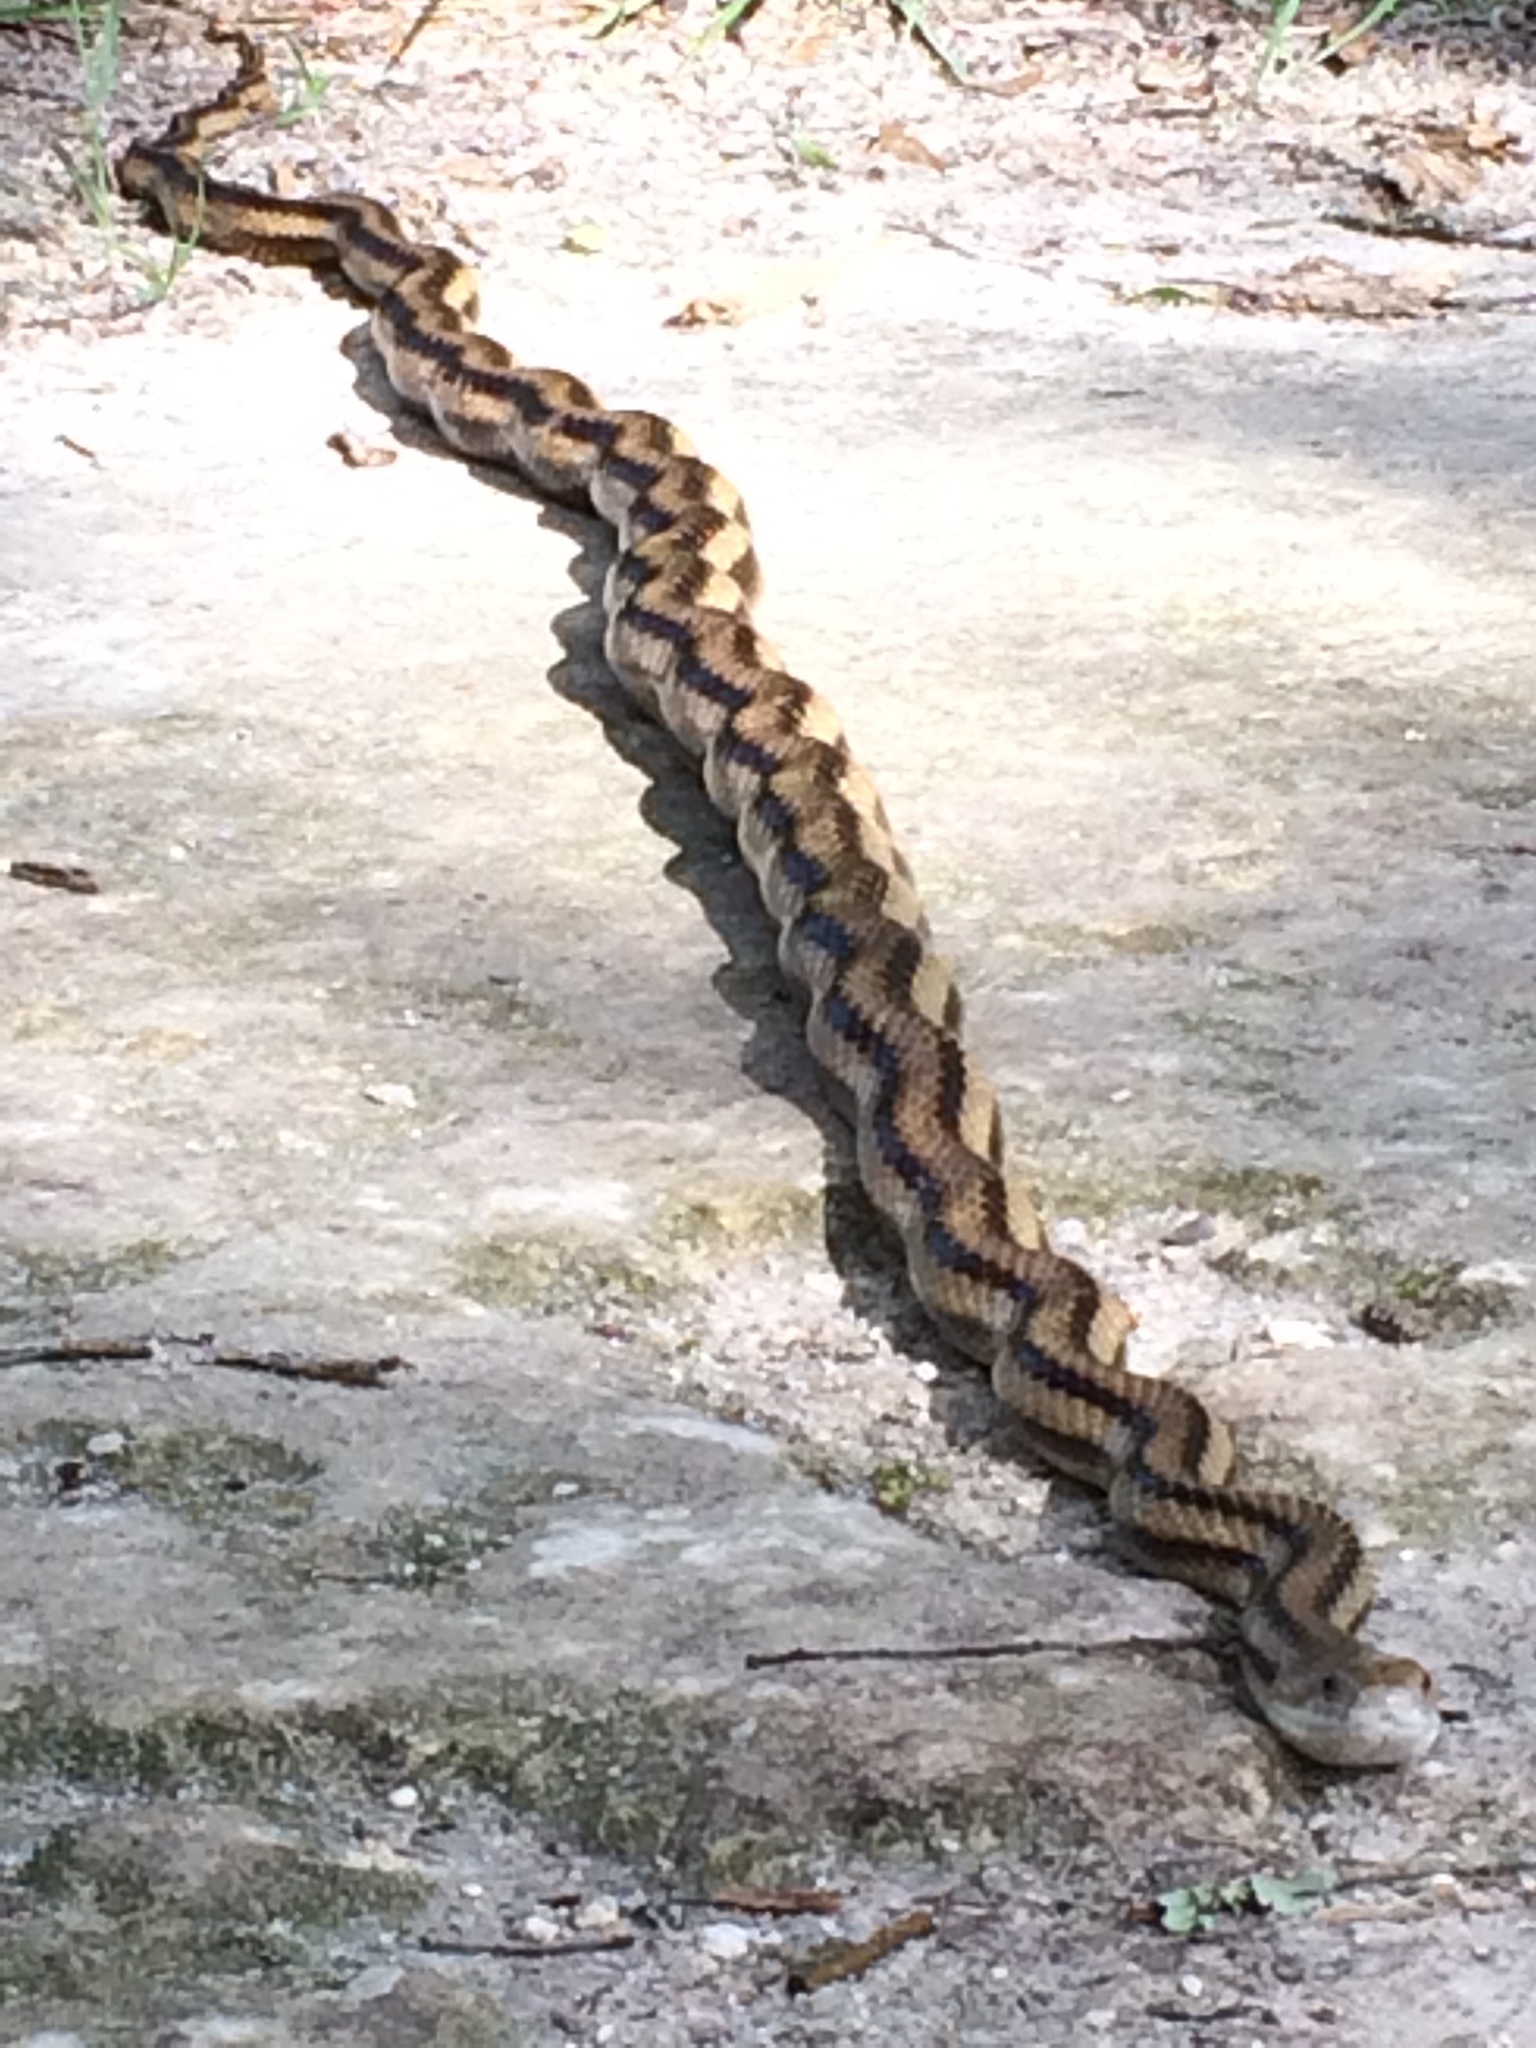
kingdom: Animalia
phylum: Chordata
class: Squamata
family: Colubridae
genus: Pantherophis
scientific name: Pantherophis alleghaniensis
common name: Eastern rat snake
